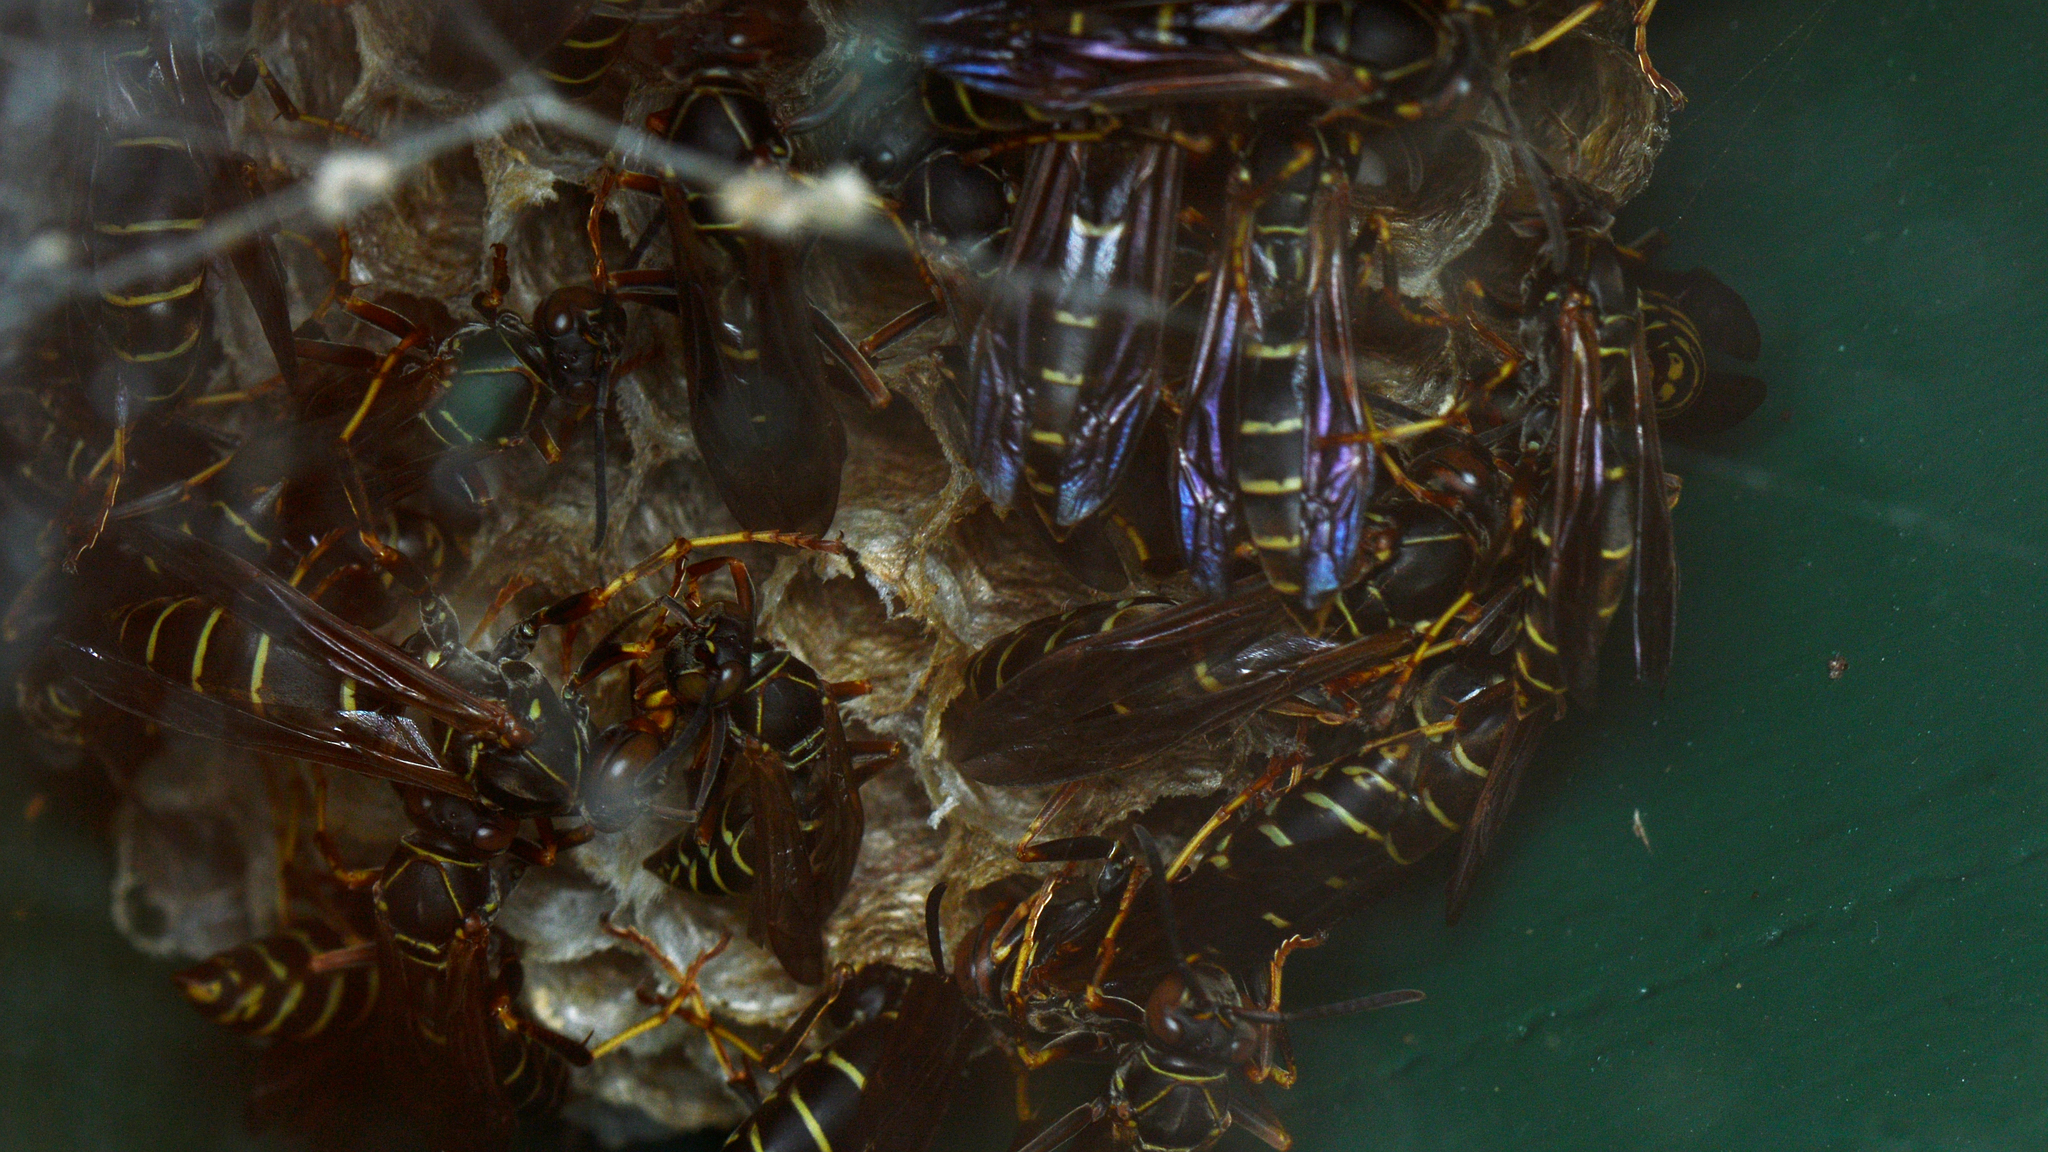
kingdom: Animalia
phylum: Arthropoda
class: Insecta
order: Hymenoptera
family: Eumenidae
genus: Polistes
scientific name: Polistes fuscatus
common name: Dark paper wasp
